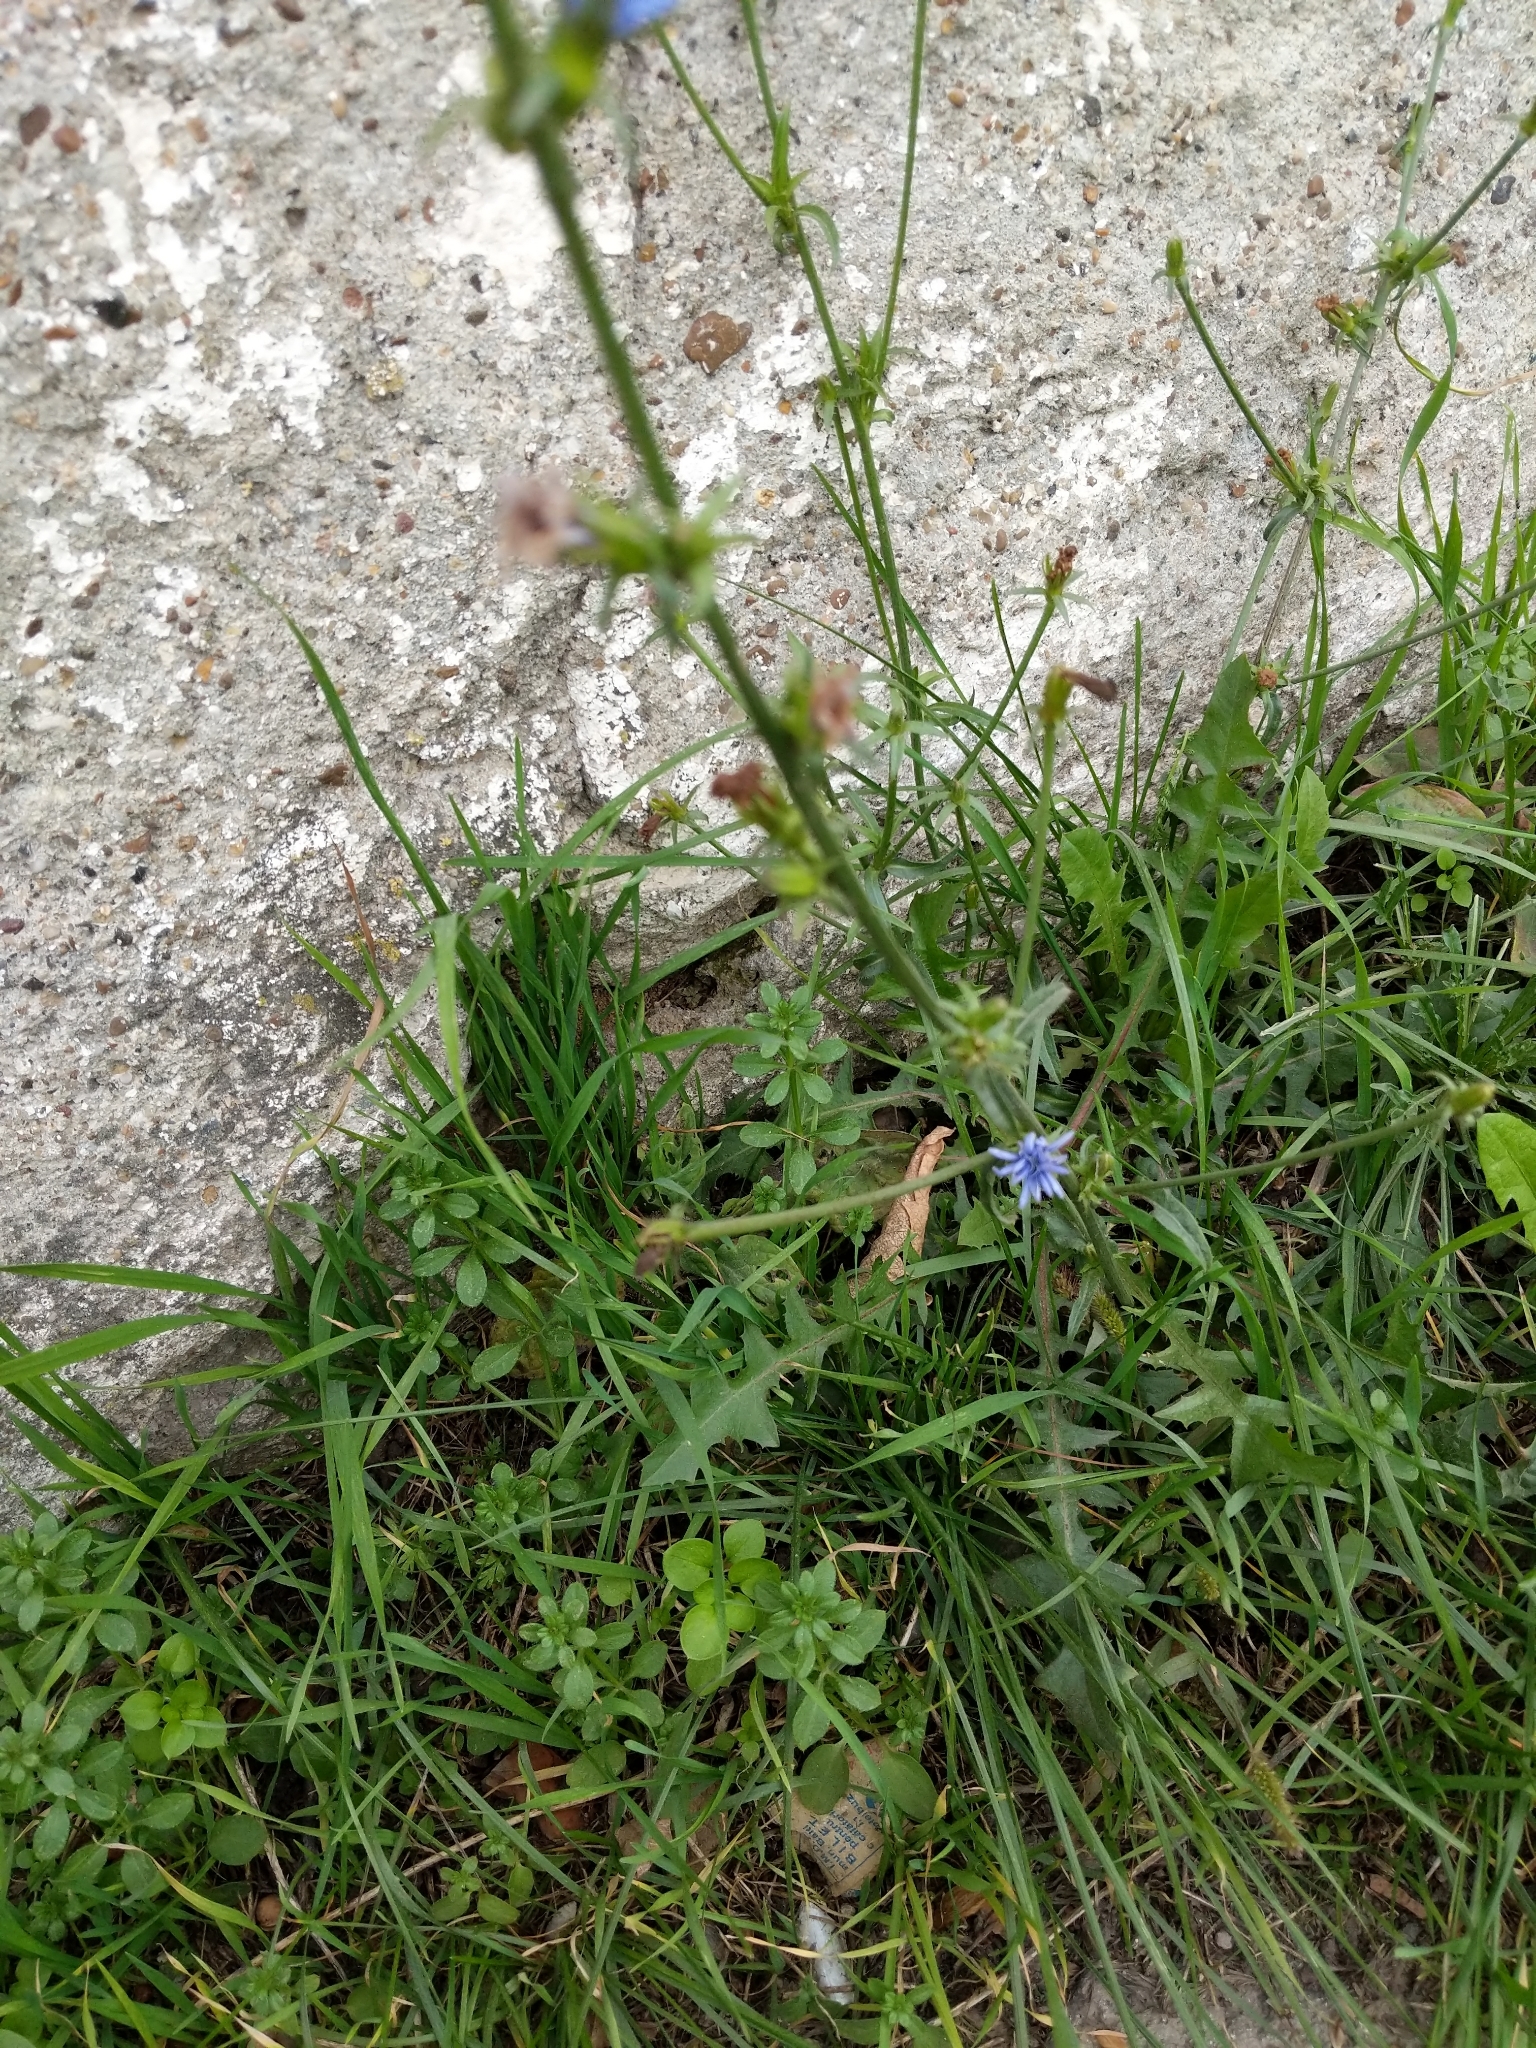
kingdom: Plantae
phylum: Tracheophyta
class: Magnoliopsida
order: Asterales
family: Asteraceae
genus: Cichorium
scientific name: Cichorium intybus
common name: Chicory
